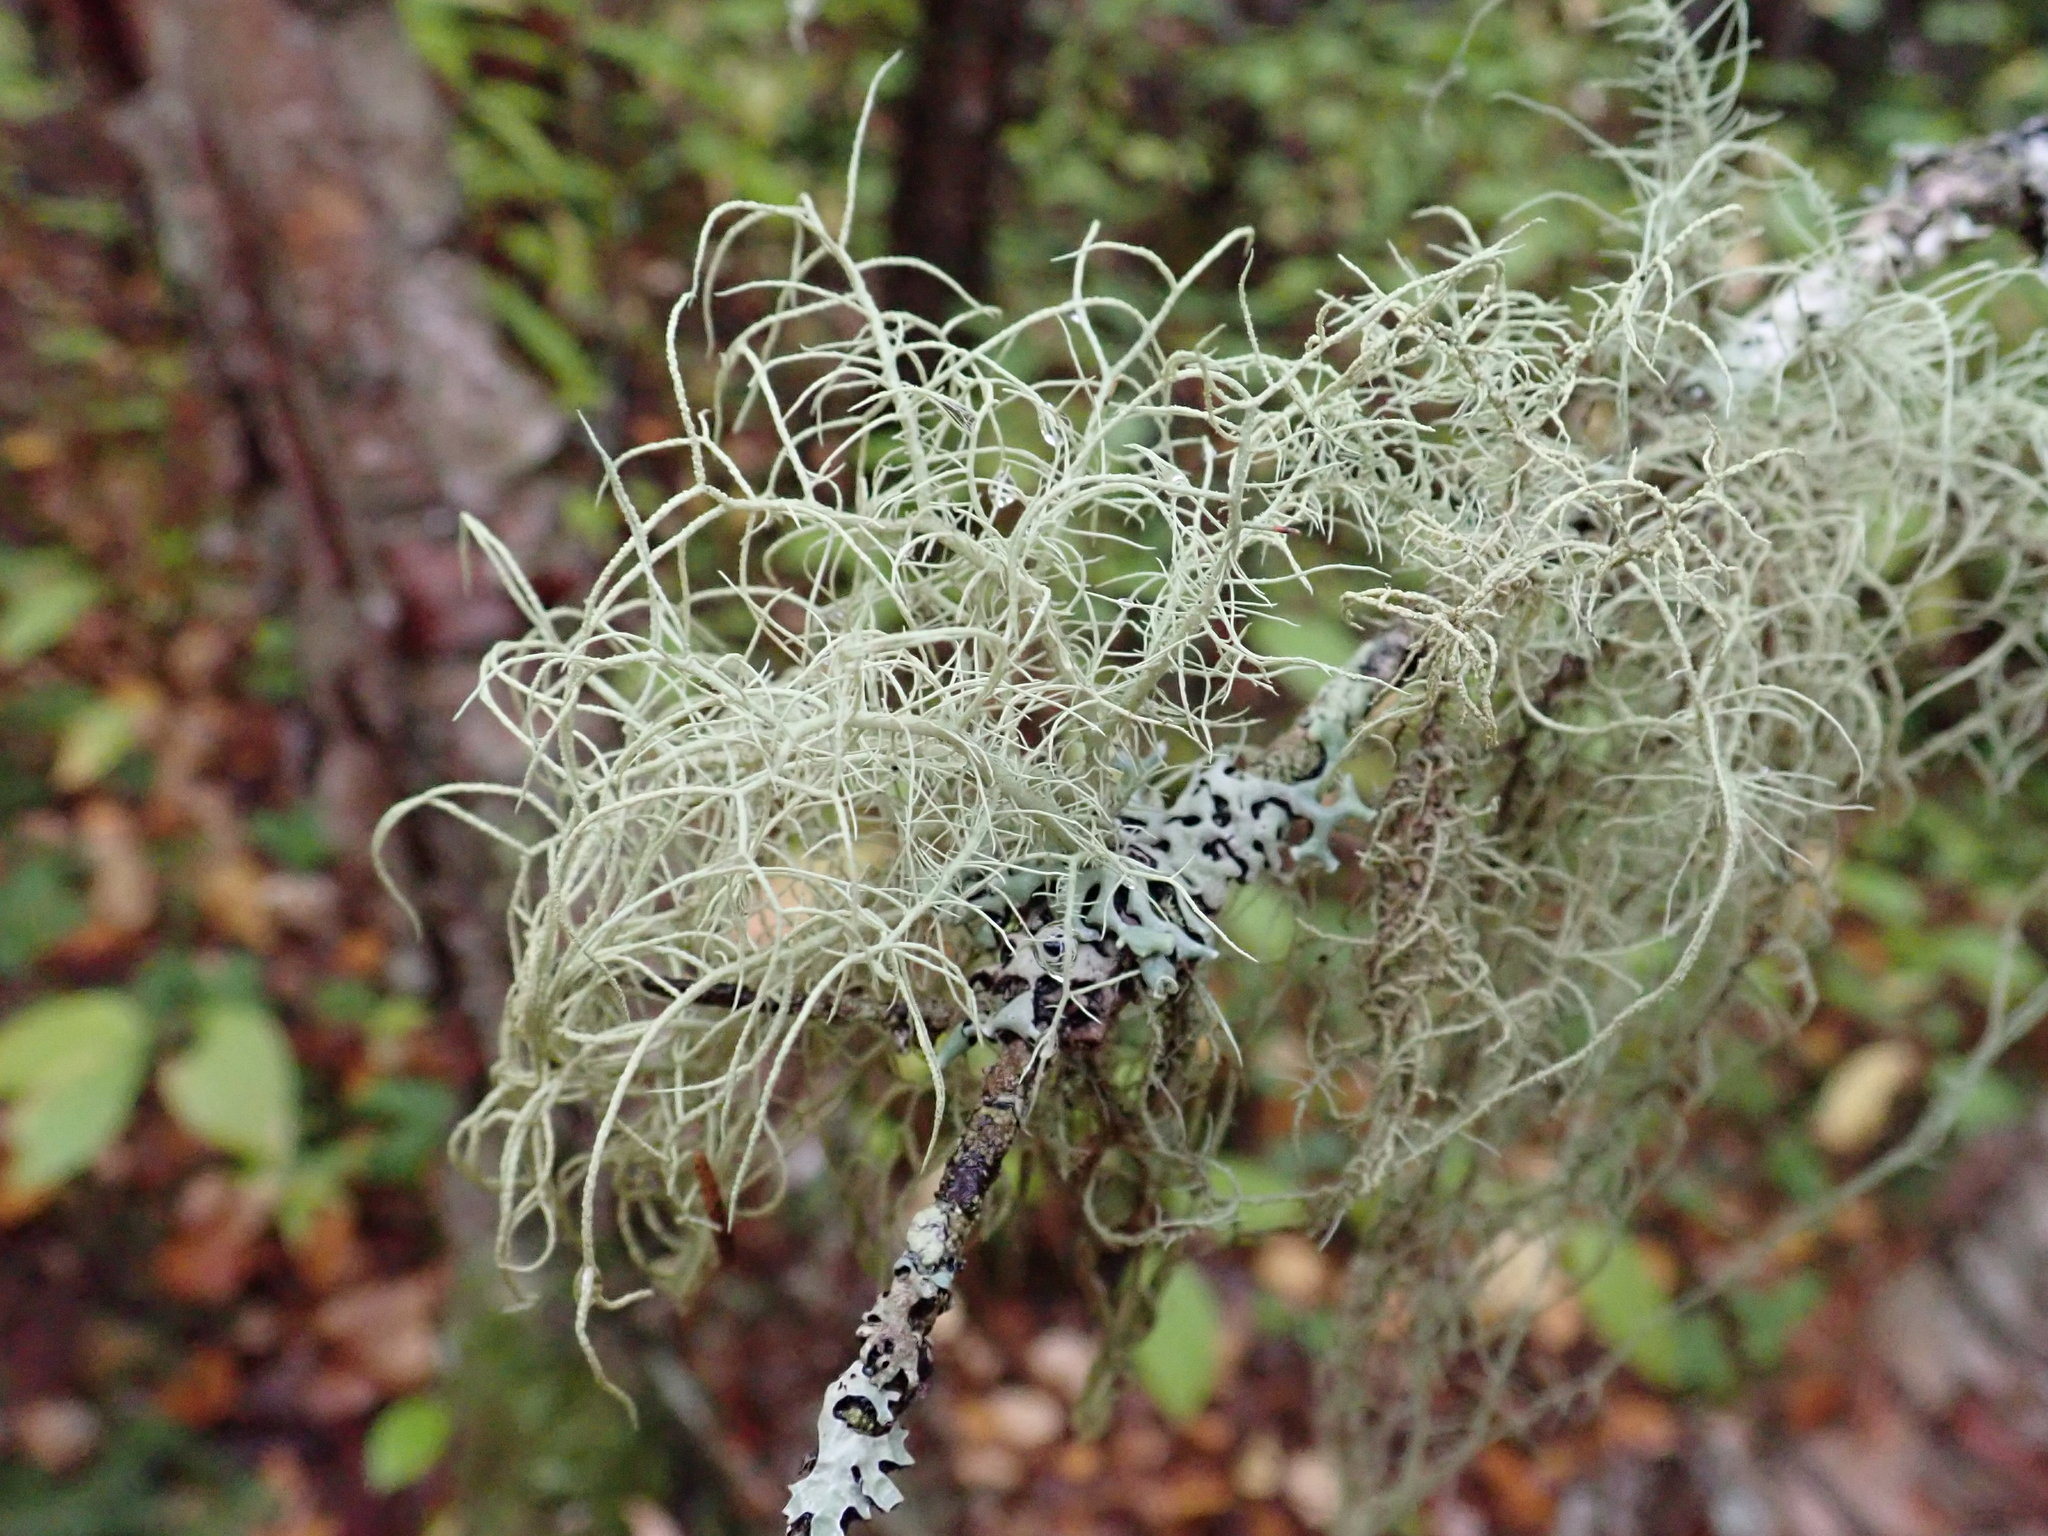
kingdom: Fungi
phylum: Ascomycota
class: Lecanoromycetes
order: Lecanorales
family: Parmeliaceae
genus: Usnea
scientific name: Usnea subfloridana
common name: Boreal beard lichen
